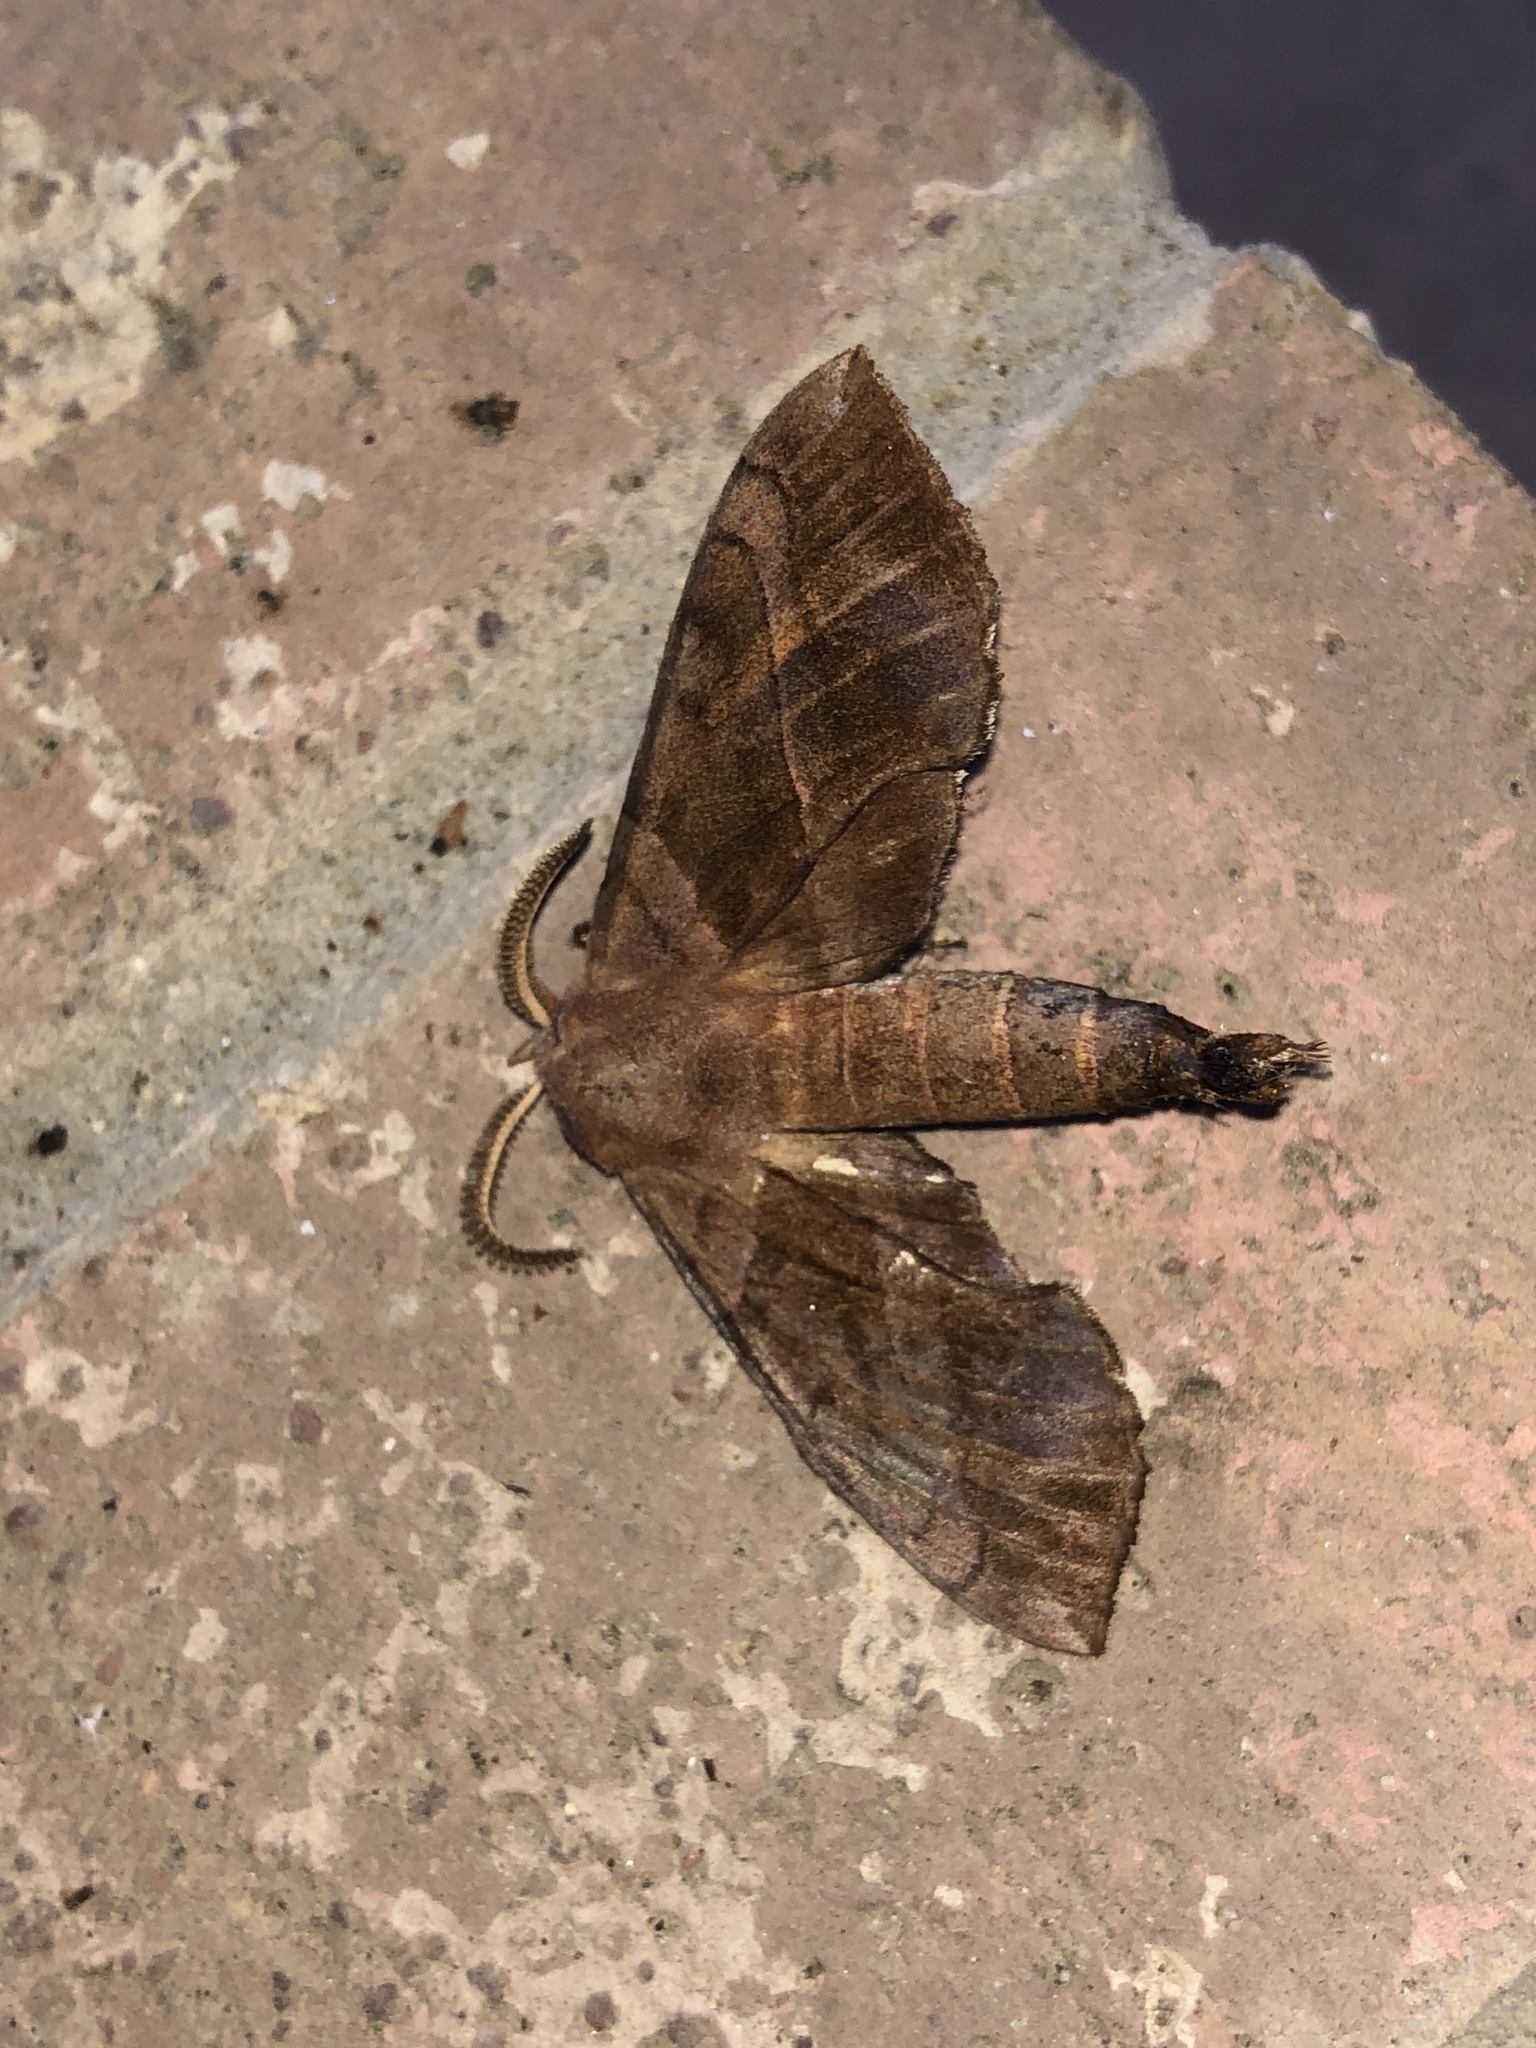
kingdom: Animalia
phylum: Arthropoda
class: Insecta
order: Lepidoptera
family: Sphingidae
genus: Amorpha
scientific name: Amorpha juglandis
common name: Walnut sphinx
